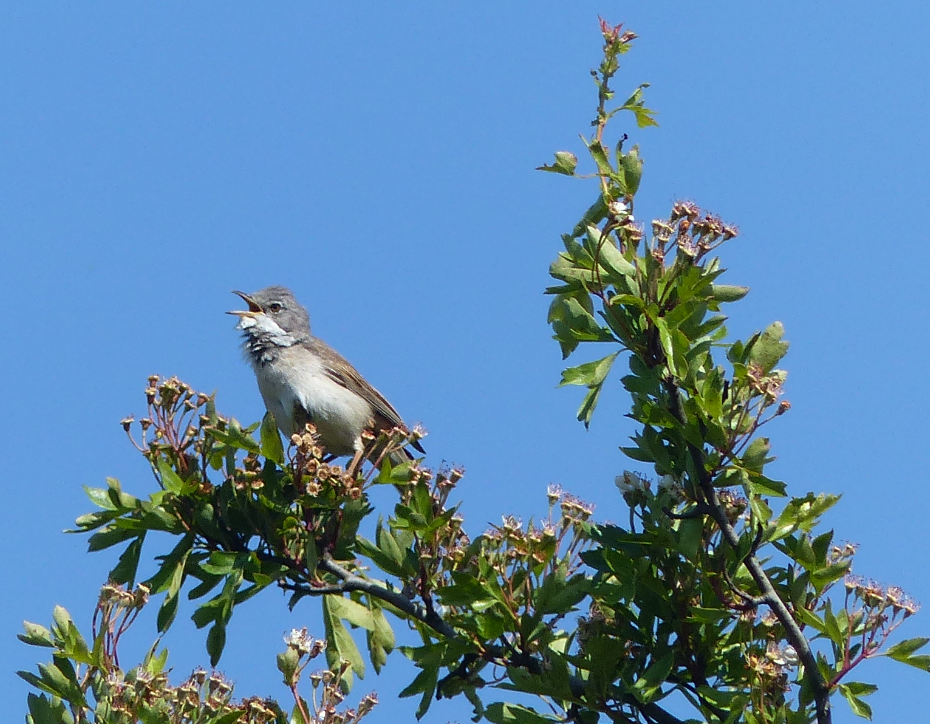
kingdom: Animalia
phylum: Chordata
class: Aves
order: Passeriformes
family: Sylviidae
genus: Sylvia
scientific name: Sylvia communis
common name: Common whitethroat
